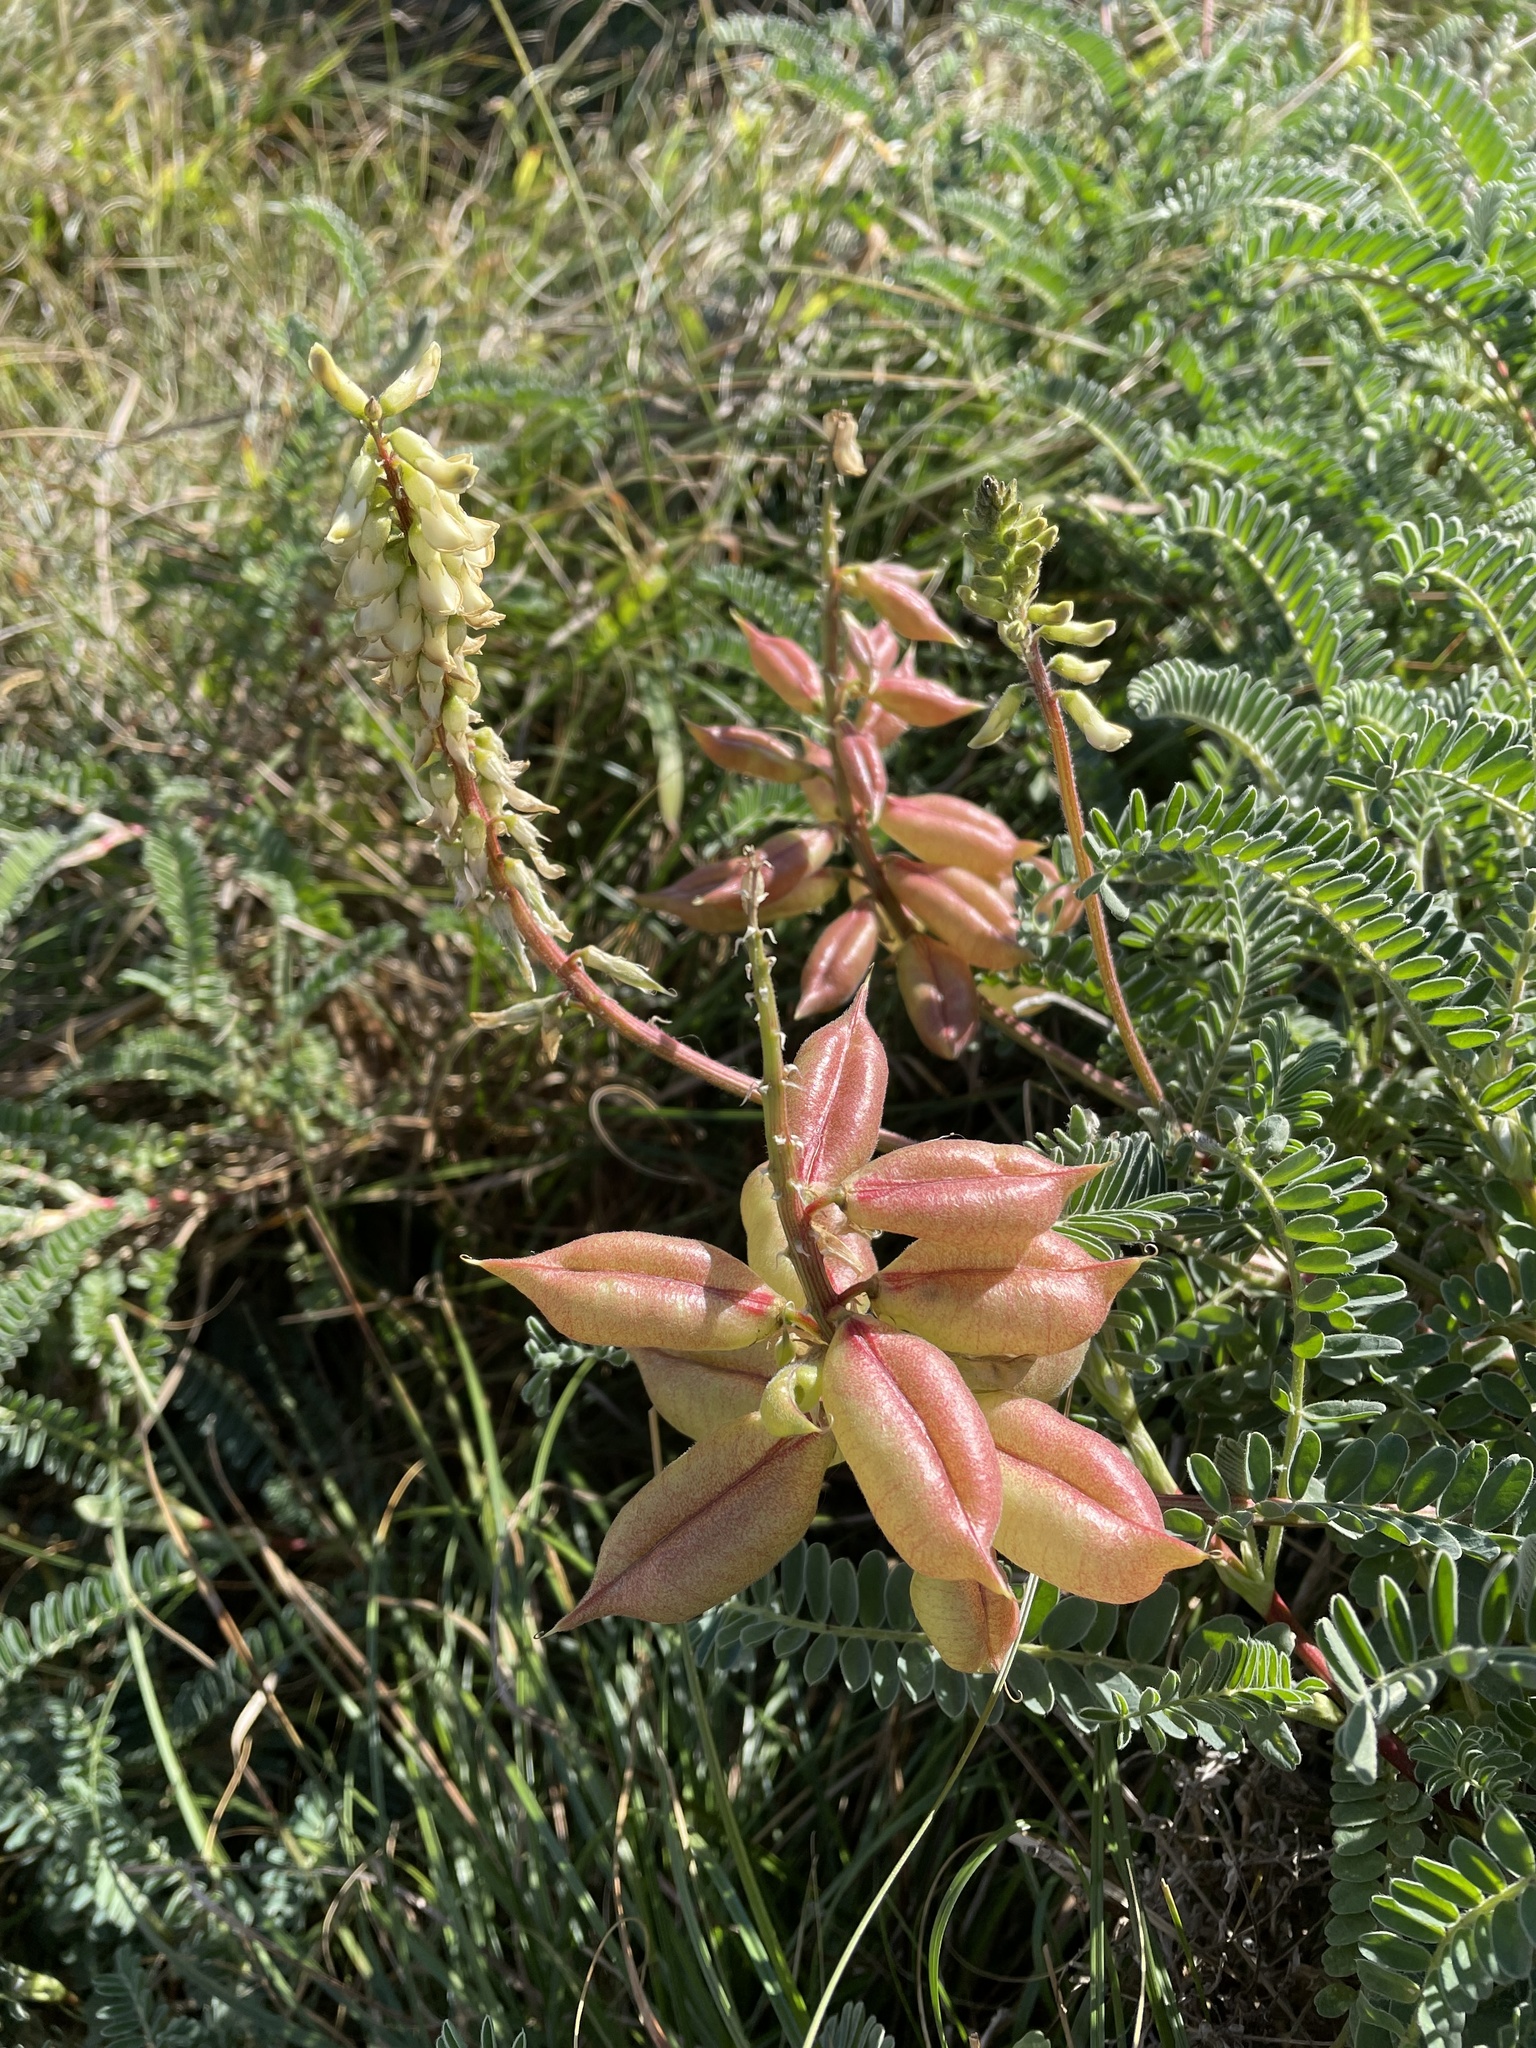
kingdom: Plantae
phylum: Tracheophyta
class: Magnoliopsida
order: Fabales
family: Fabaceae
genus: Astragalus
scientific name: Astragalus nuttallii
